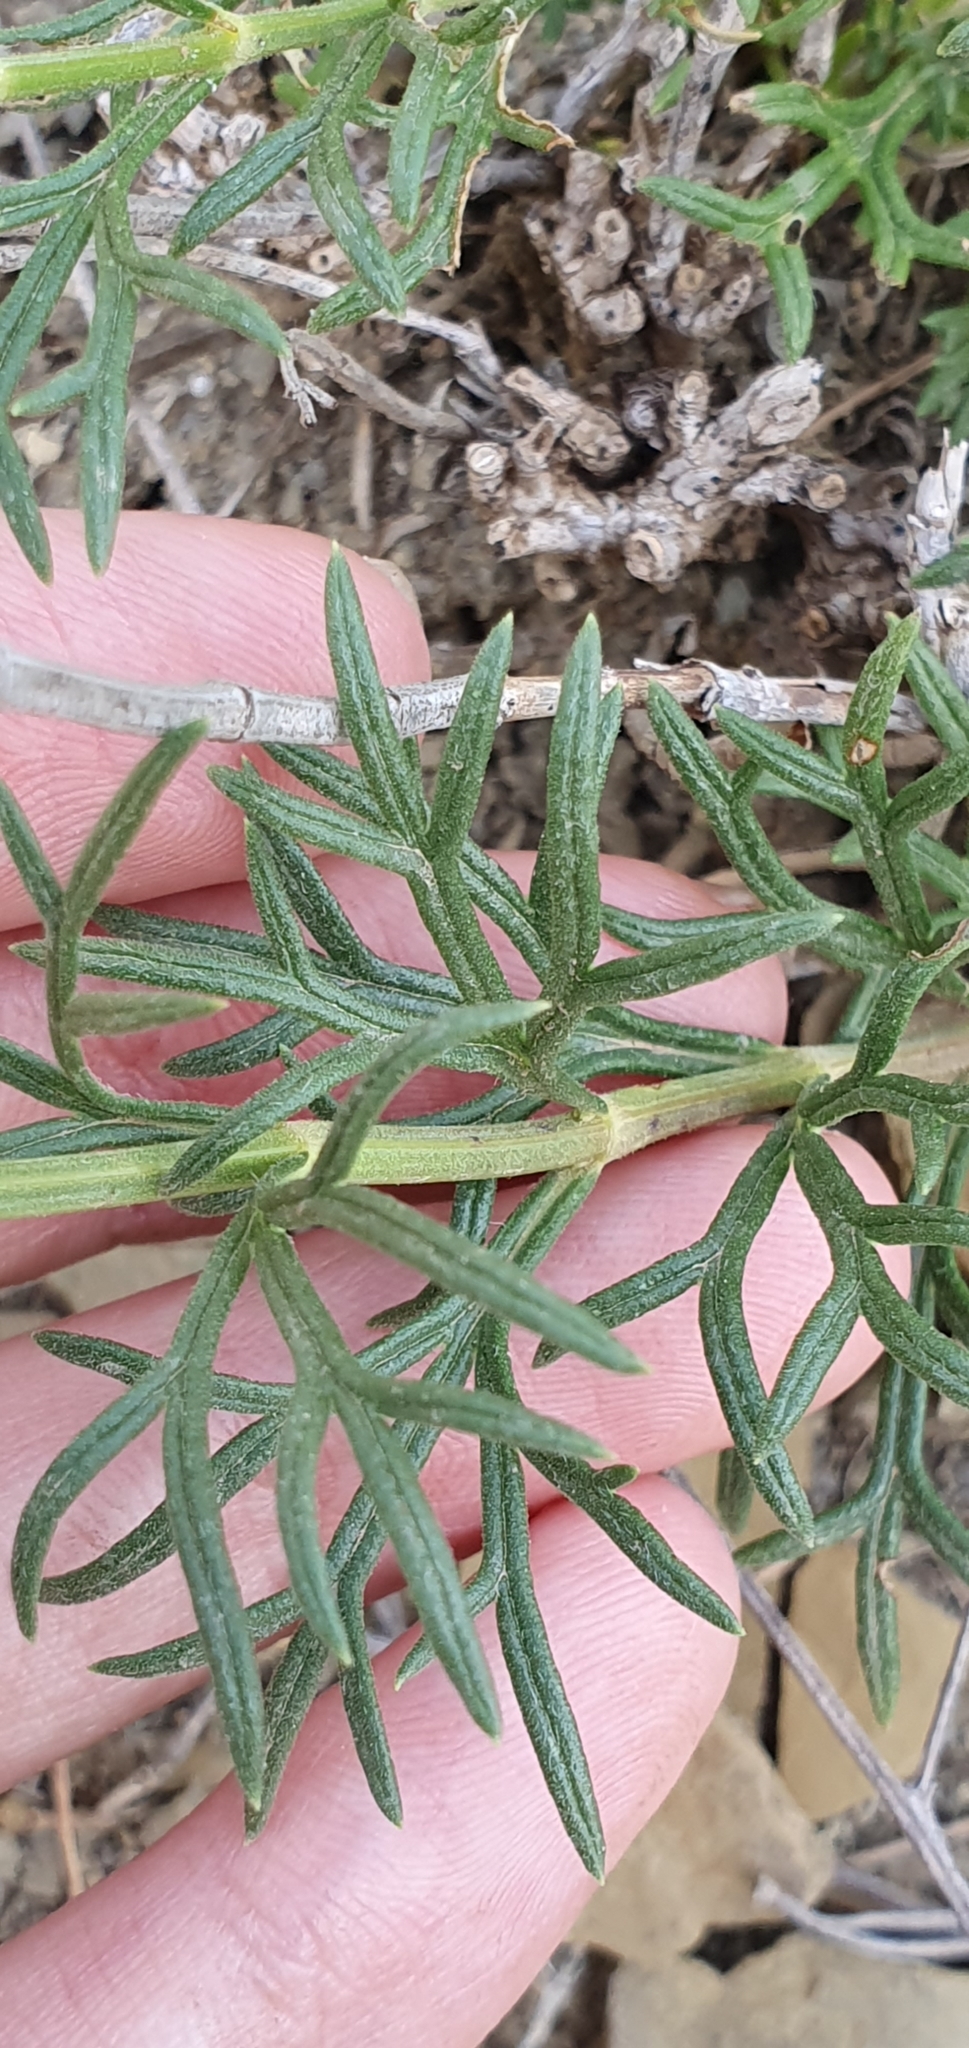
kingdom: Plantae
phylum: Tracheophyta
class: Magnoliopsida
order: Lamiales
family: Lamiaceae
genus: Teucrium
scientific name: Teucrium pseudochamaepitys
